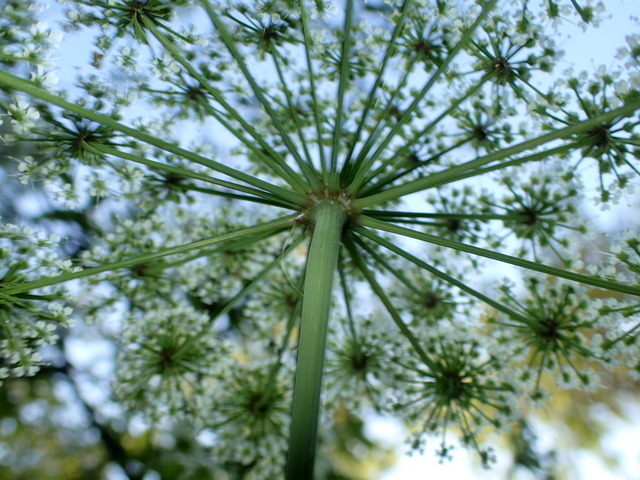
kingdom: Plantae
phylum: Tracheophyta
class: Magnoliopsida
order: Apiales
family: Apiaceae
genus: Cicuta
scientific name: Cicuta maculata
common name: Spotted cowbane
